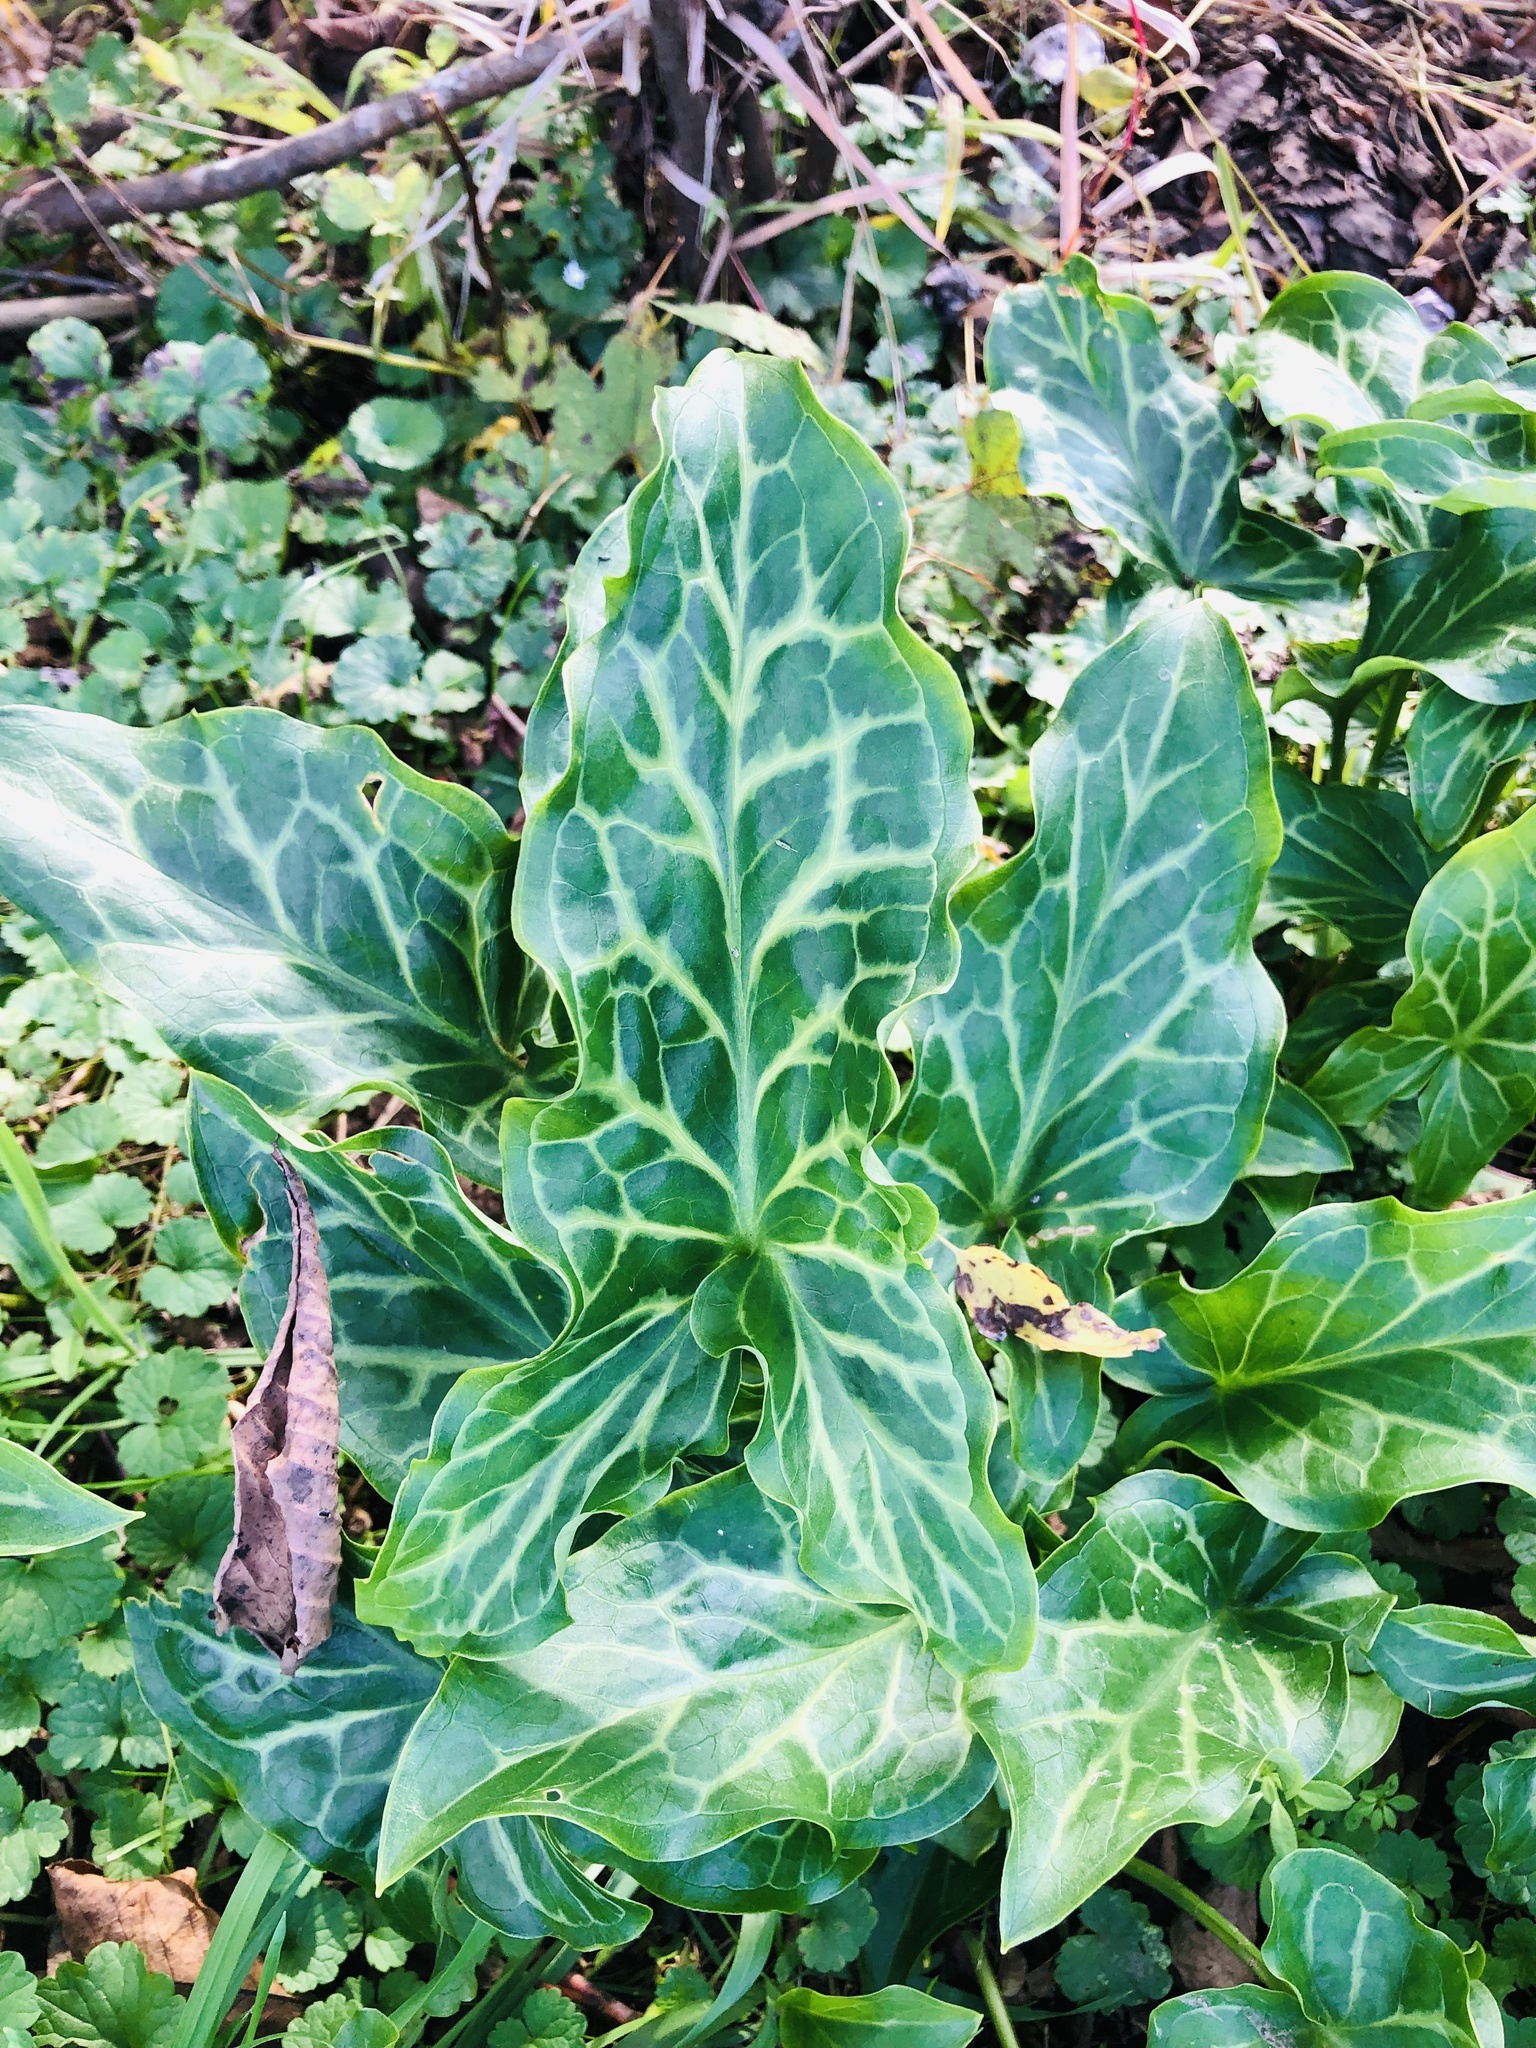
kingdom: Plantae
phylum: Tracheophyta
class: Liliopsida
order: Alismatales
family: Araceae
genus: Arum
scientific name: Arum italicum
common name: Italian lords-and-ladies
